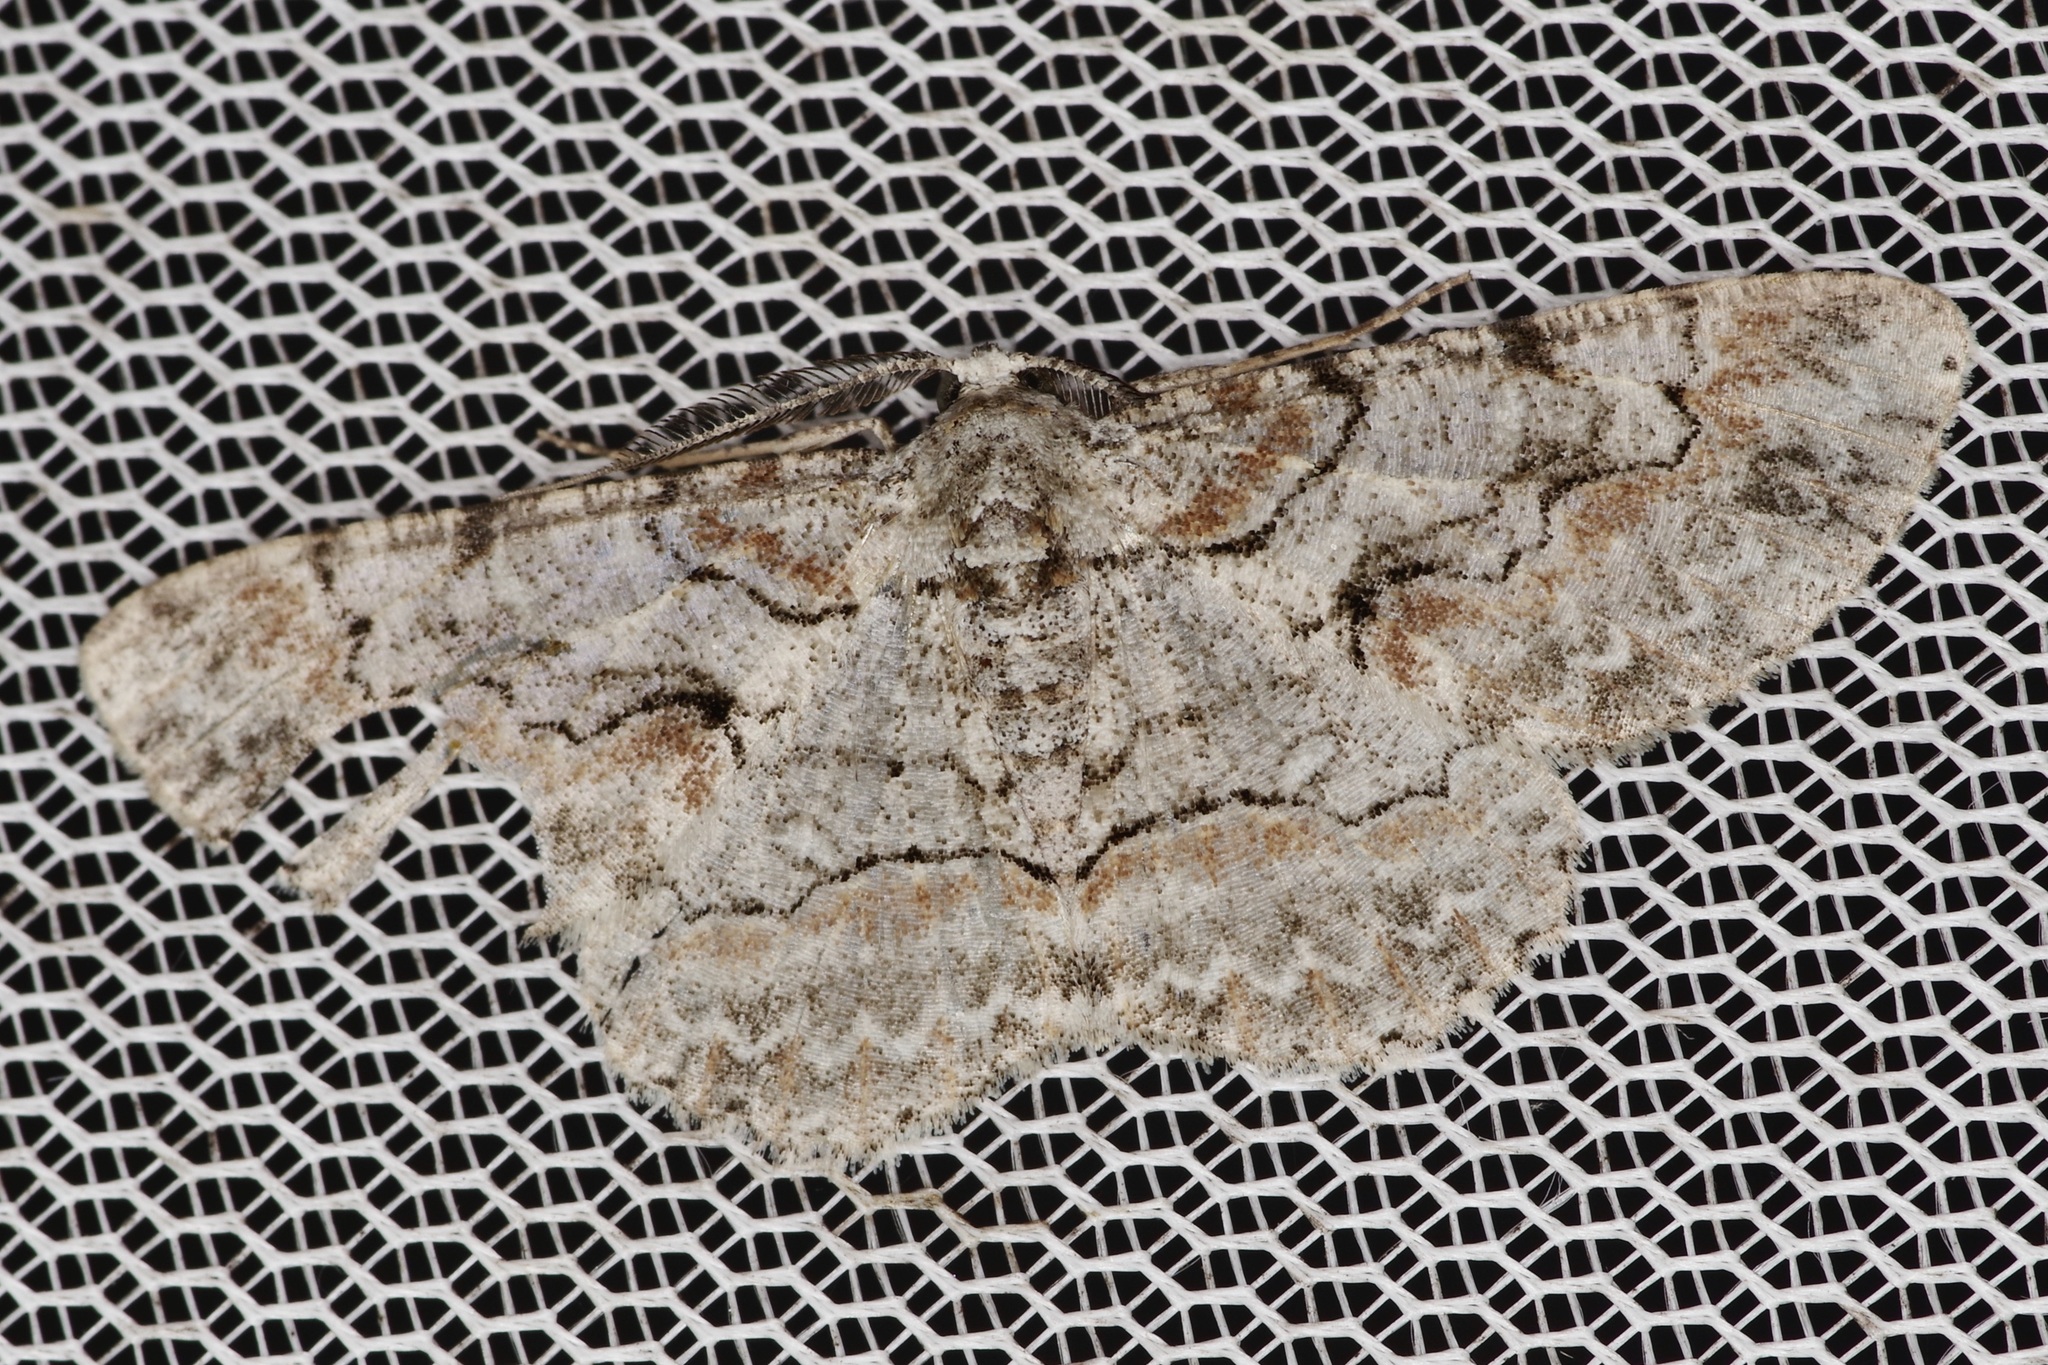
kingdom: Animalia
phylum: Arthropoda
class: Insecta
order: Lepidoptera
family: Geometridae
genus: Iridopsis
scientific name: Iridopsis defectaria
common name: Brown-shaded gray
